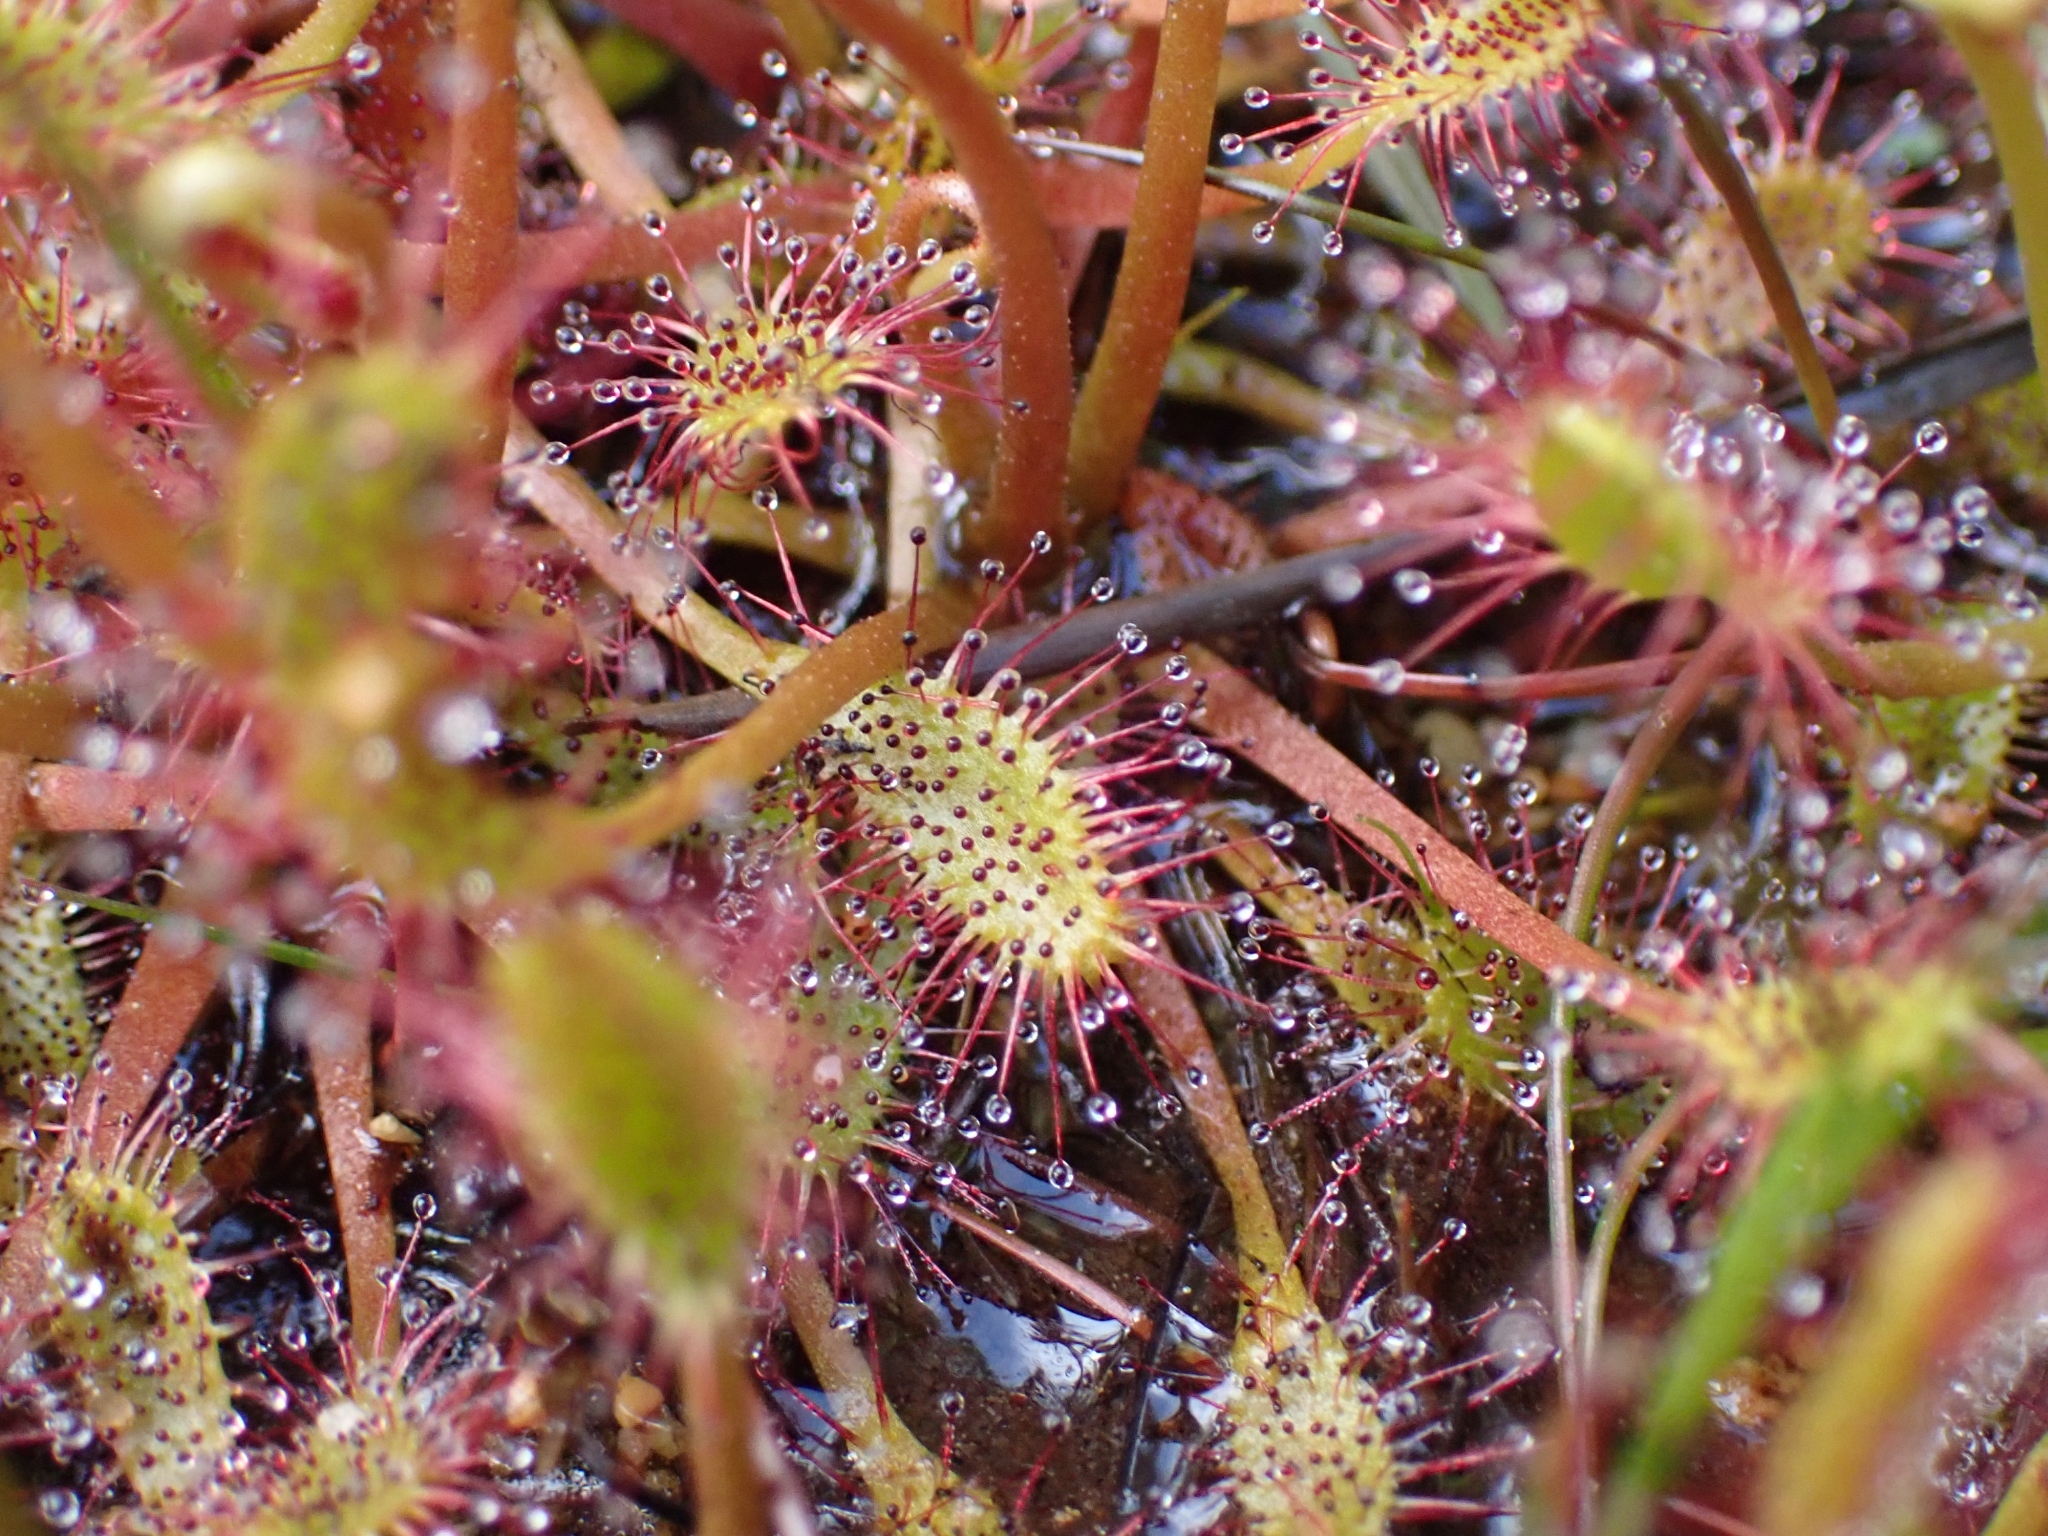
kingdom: Plantae
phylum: Tracheophyta
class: Magnoliopsida
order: Caryophyllales
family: Droseraceae
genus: Drosera
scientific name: Drosera anglica
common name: Great sundew
